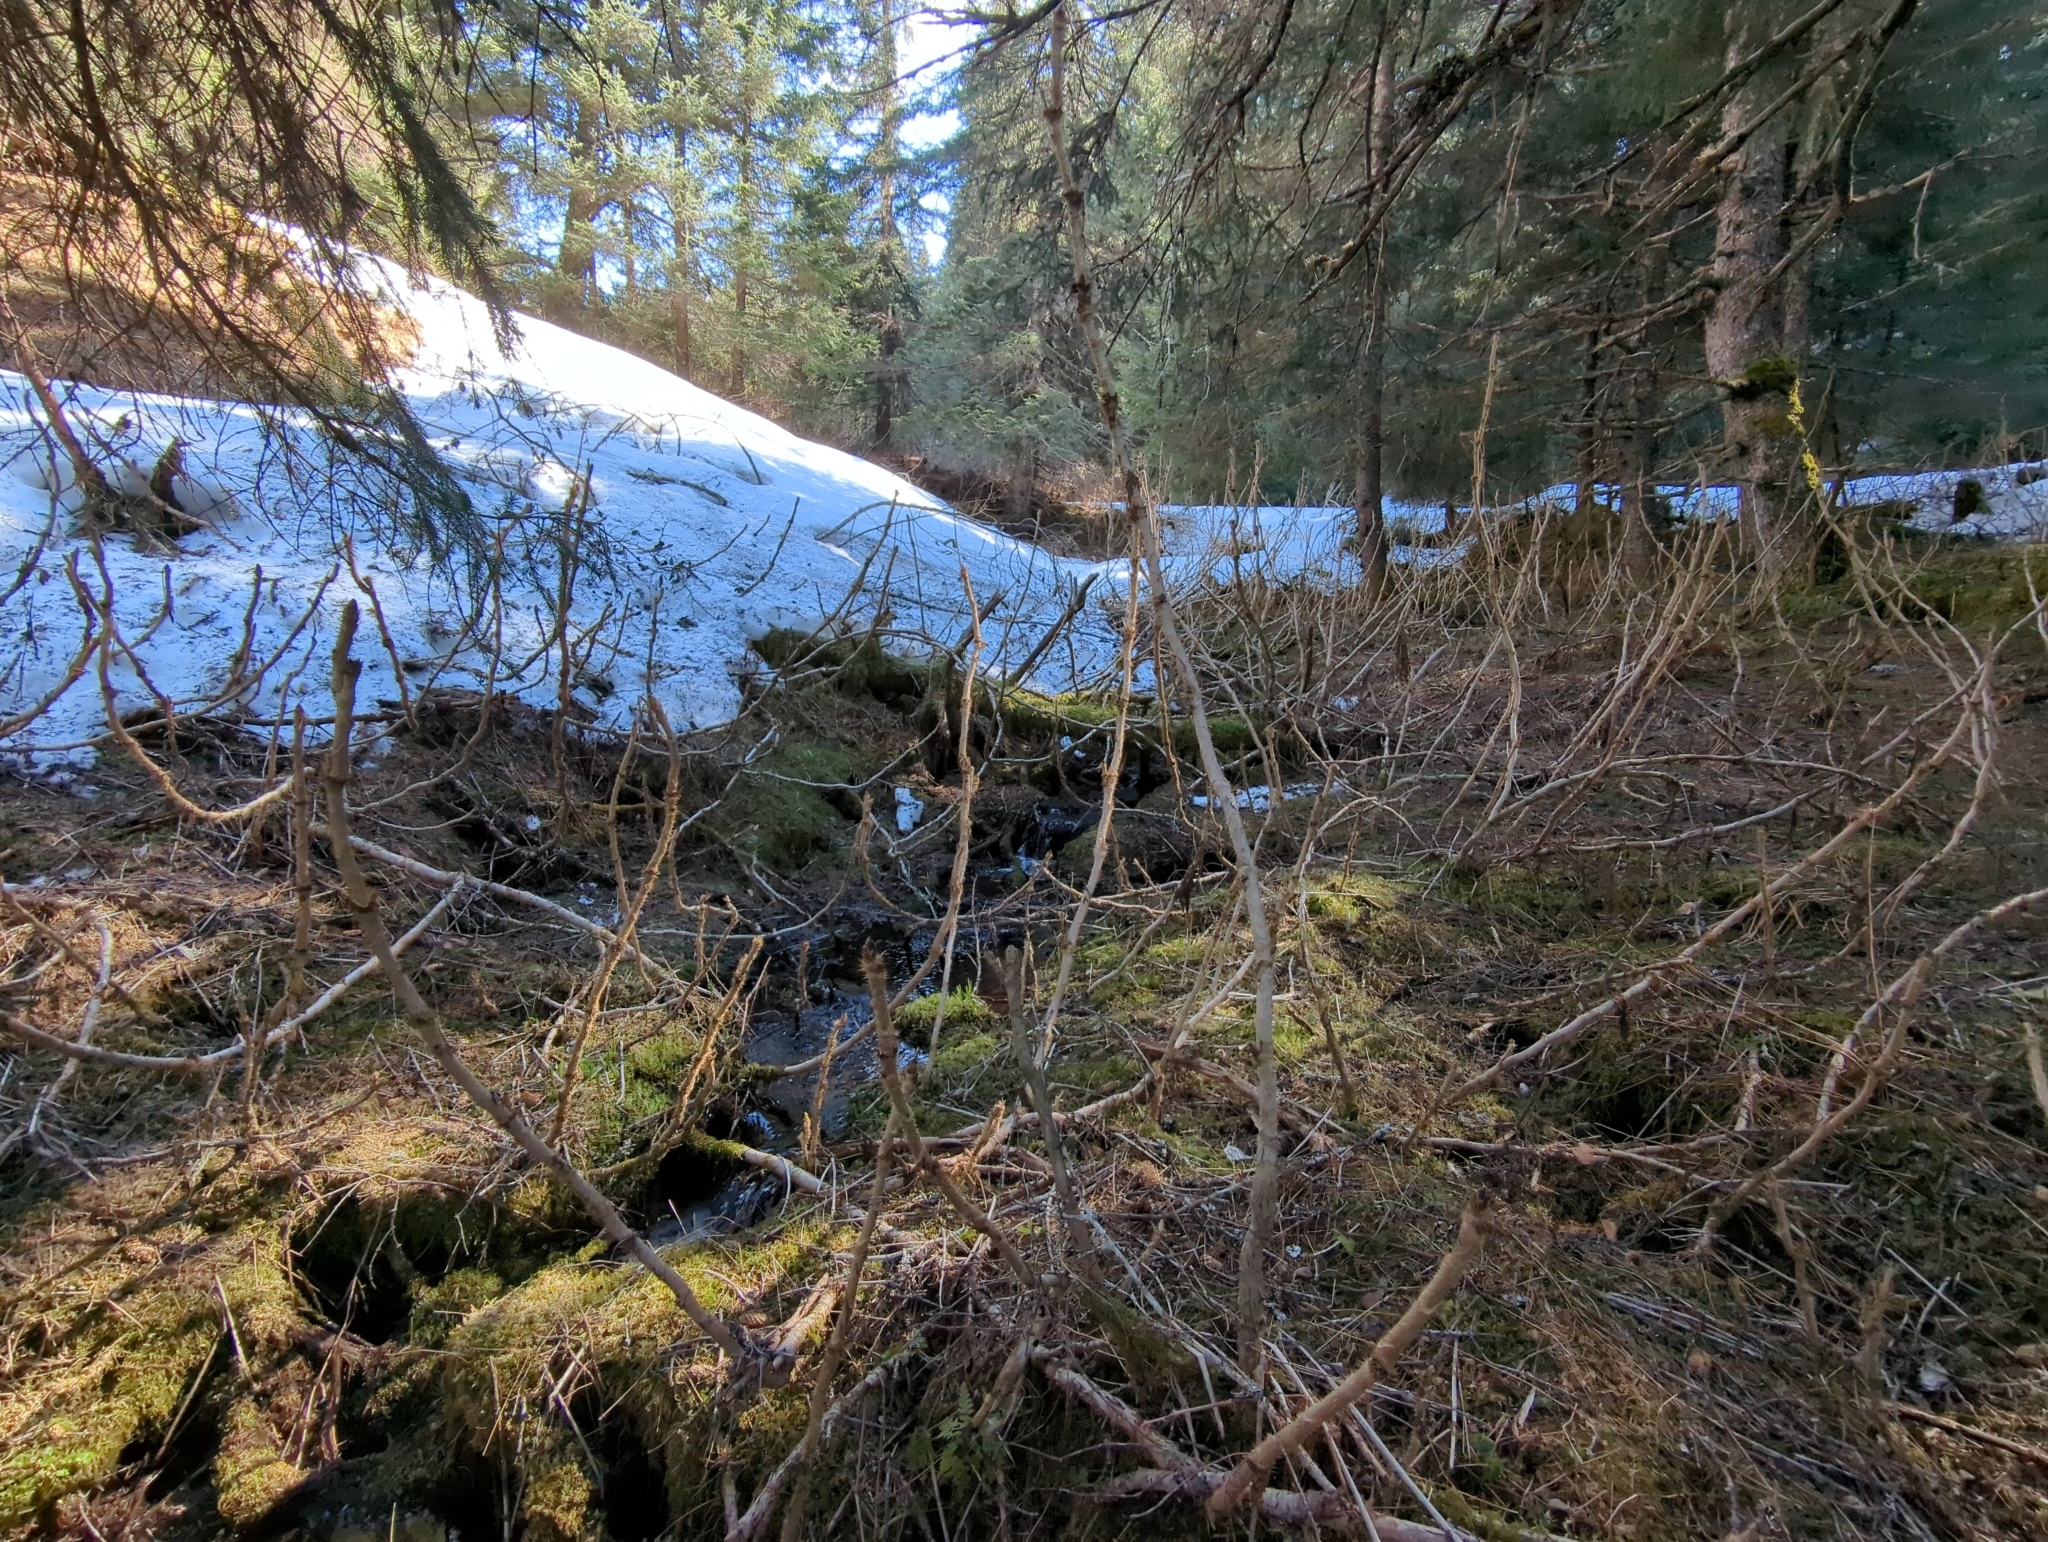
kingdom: Plantae
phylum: Tracheophyta
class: Magnoliopsida
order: Apiales
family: Araliaceae
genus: Oplopanax
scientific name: Oplopanax horridus
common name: Devil's walking-stick
